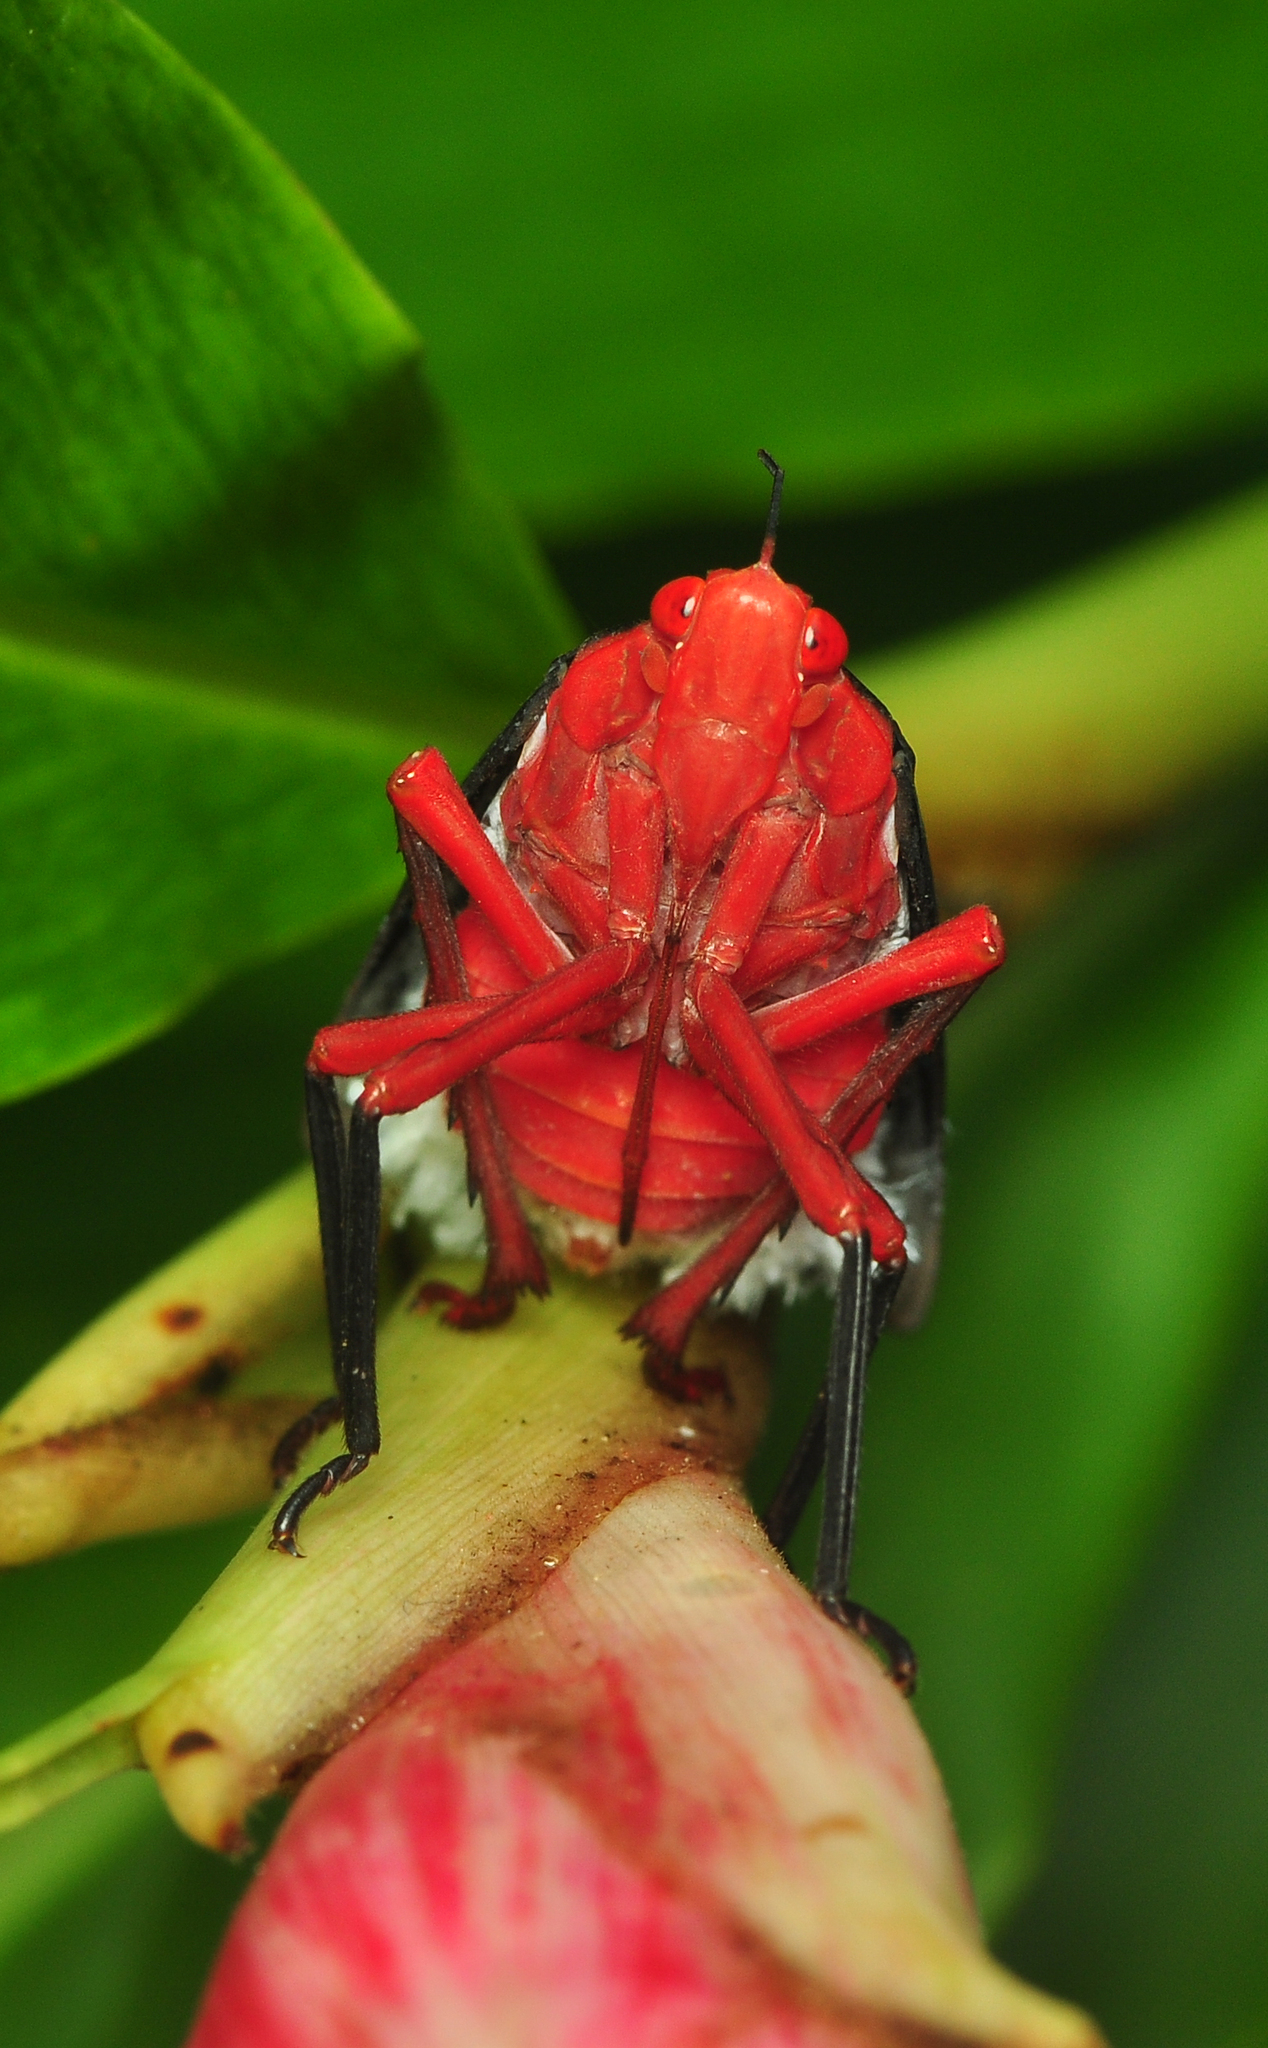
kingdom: Animalia
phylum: Arthropoda
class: Insecta
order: Hemiptera
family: Fulgoridae
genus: Kalidasa
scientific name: Kalidasa lanata
